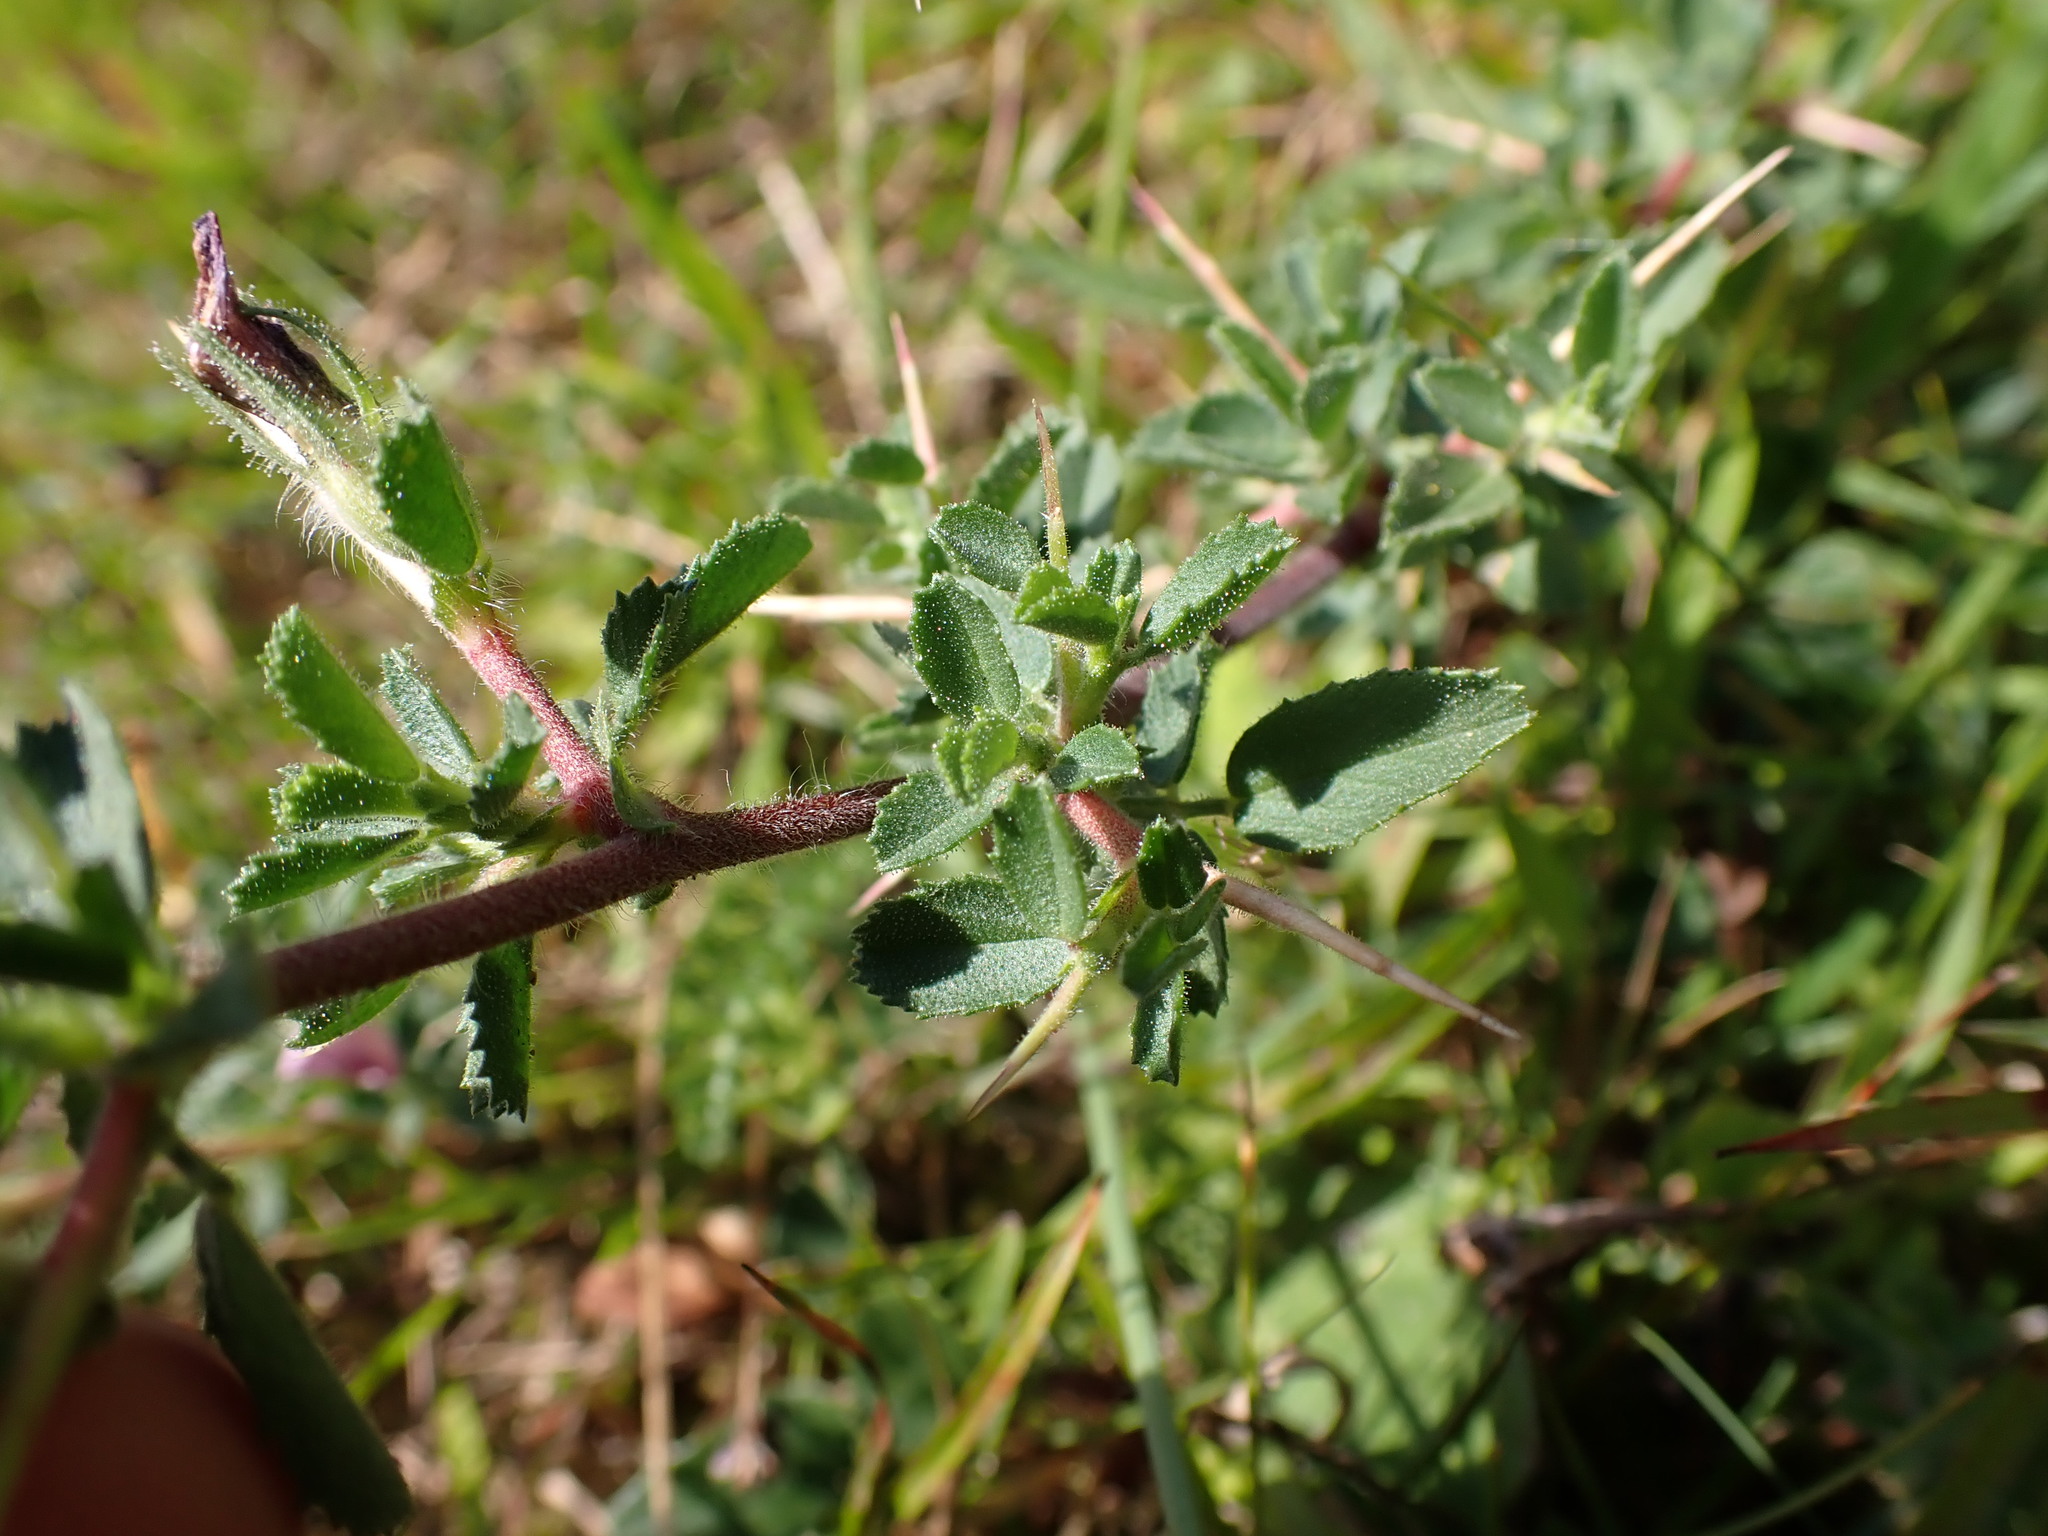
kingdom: Plantae
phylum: Tracheophyta
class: Magnoliopsida
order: Fabales
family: Fabaceae
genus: Ononis
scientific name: Ononis spinosa
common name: Spiny restharrow
